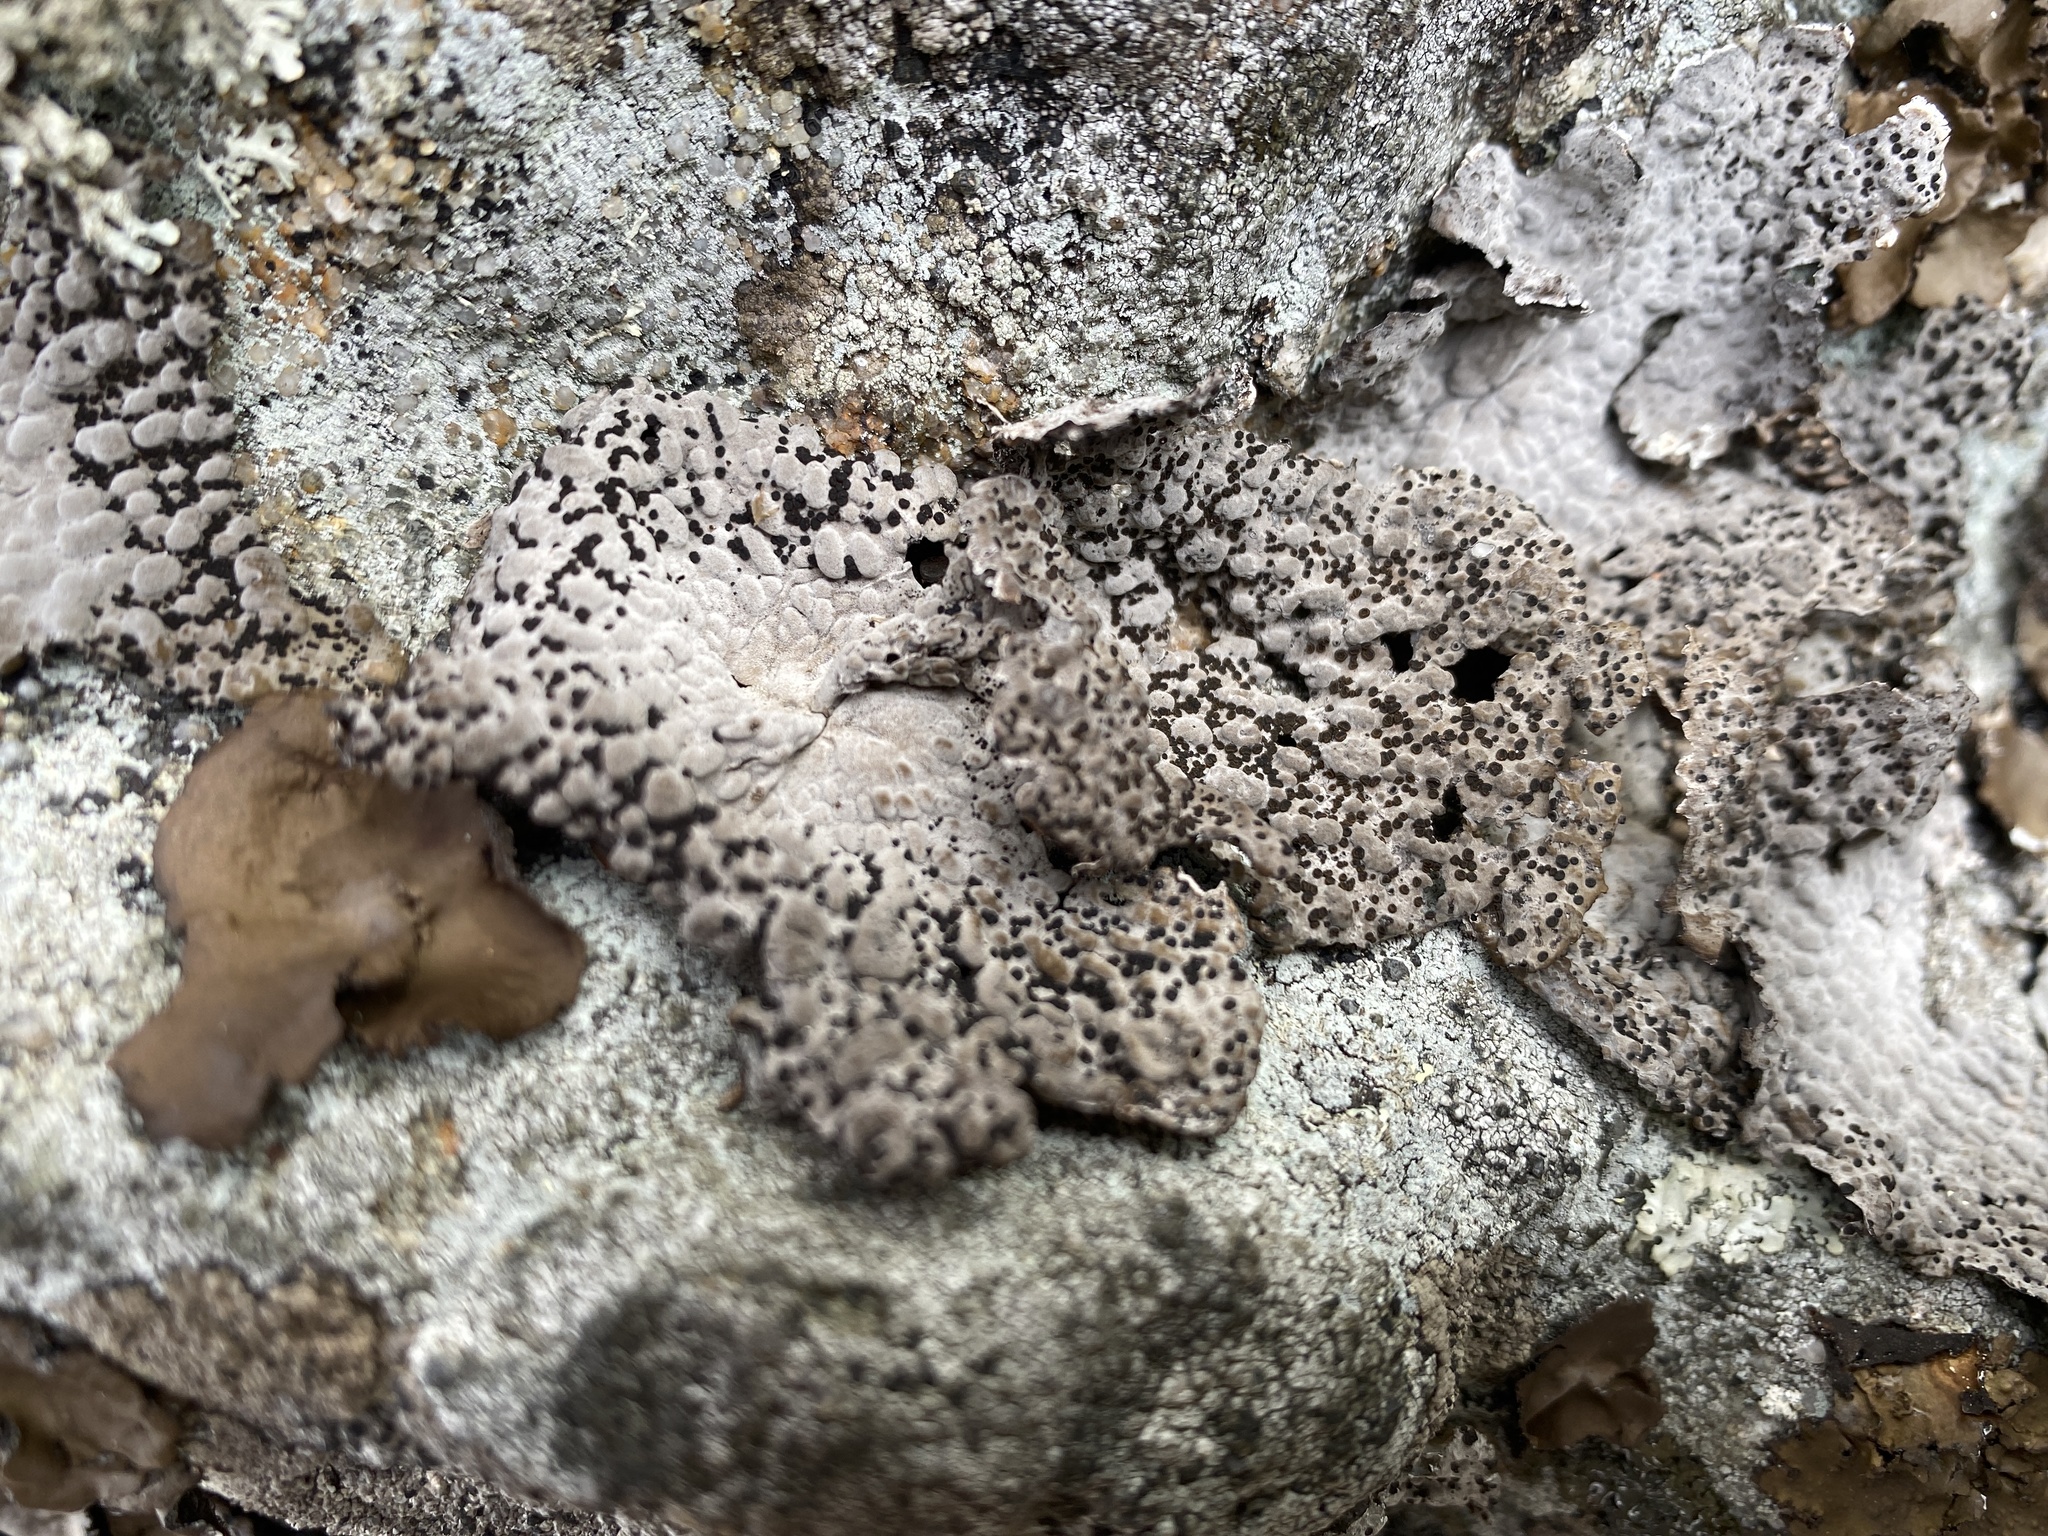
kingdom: Fungi
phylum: Ascomycota
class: Lecanoromycetes
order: Umbilicariales
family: Umbilicariaceae
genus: Lasallia
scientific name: Lasallia papulosa
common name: Common toadskin lichen
